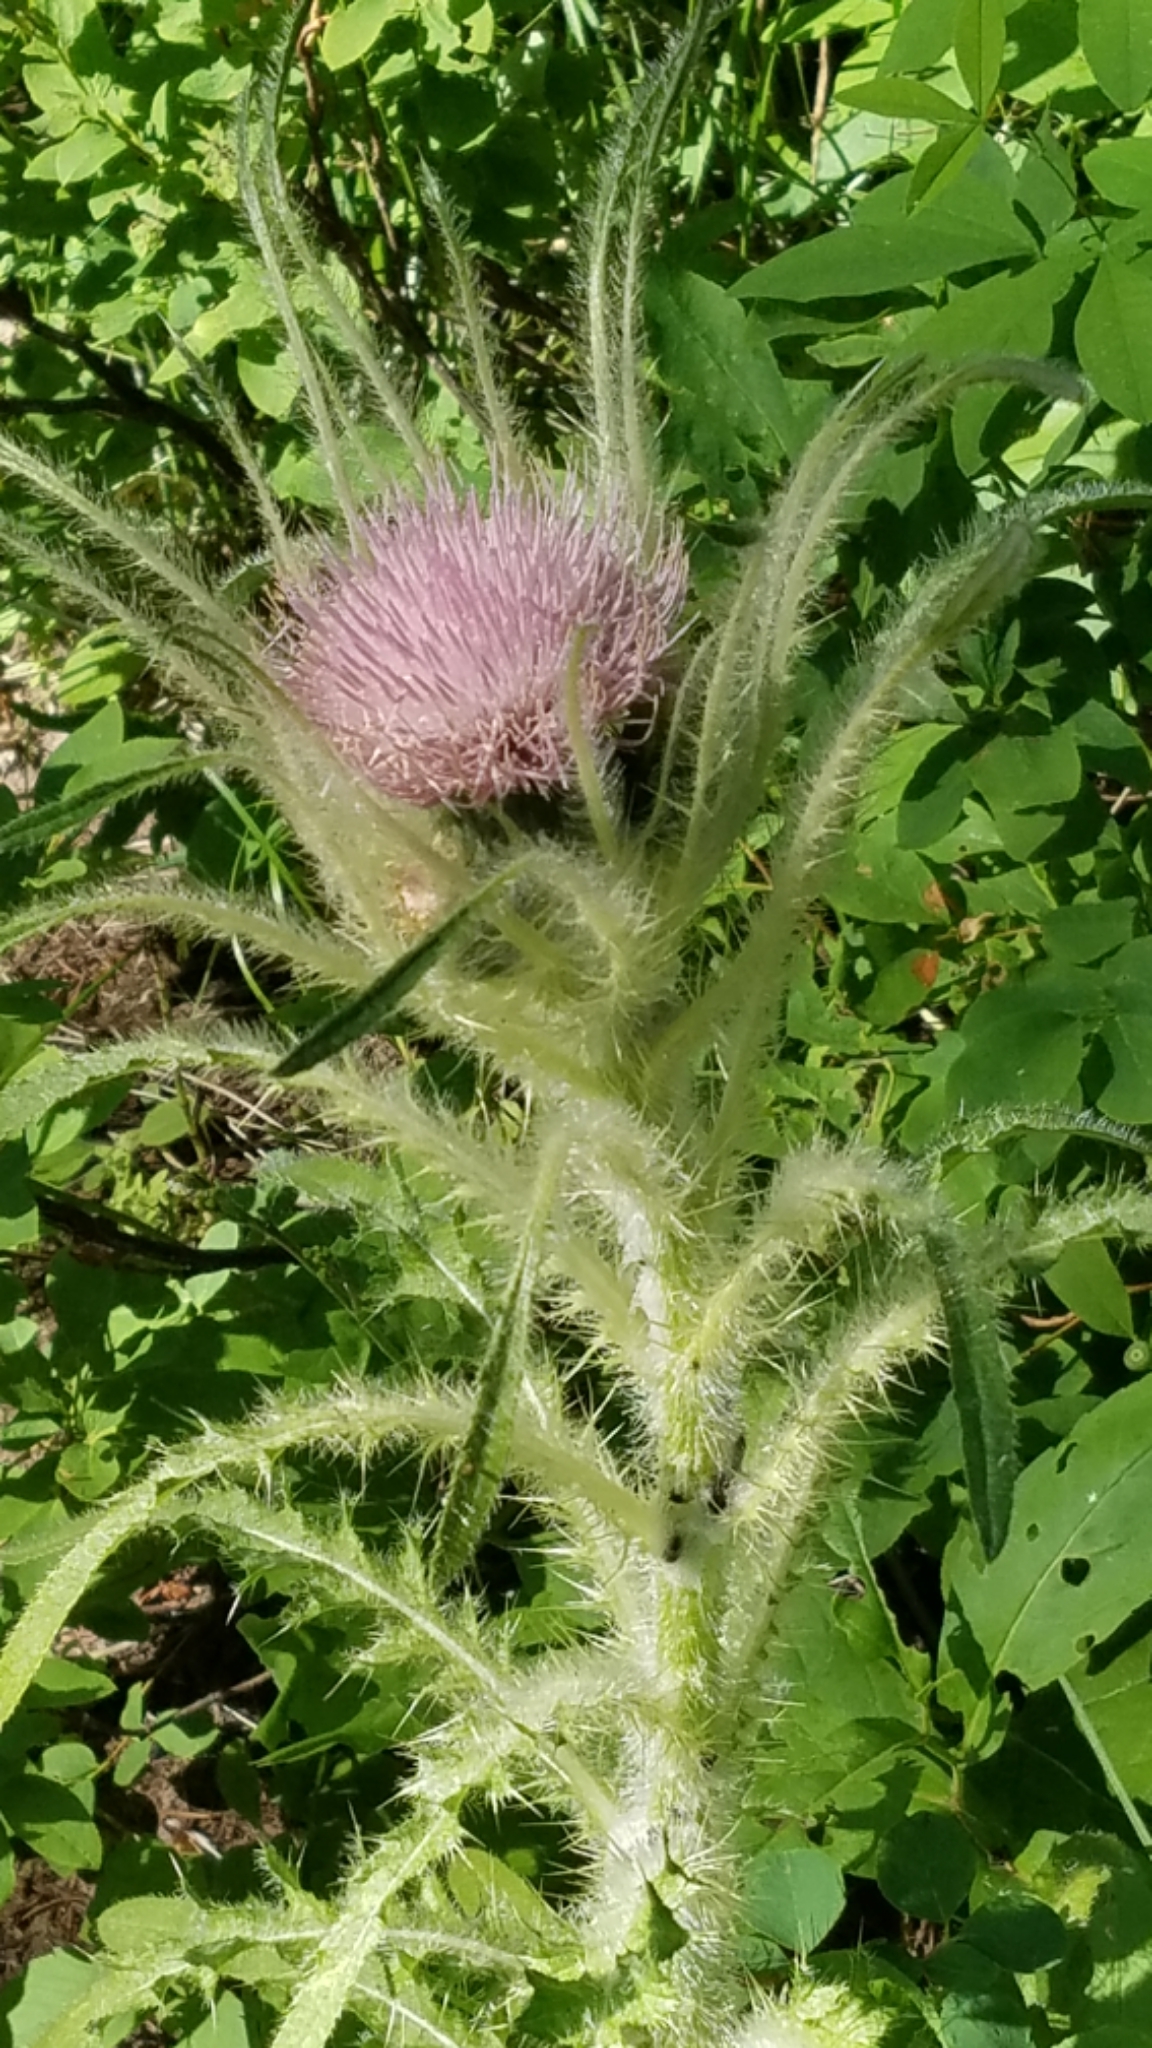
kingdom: Plantae
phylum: Tracheophyta
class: Magnoliopsida
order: Asterales
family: Asteraceae
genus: Cirsium
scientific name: Cirsium scariosum
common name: Meadow thistle
